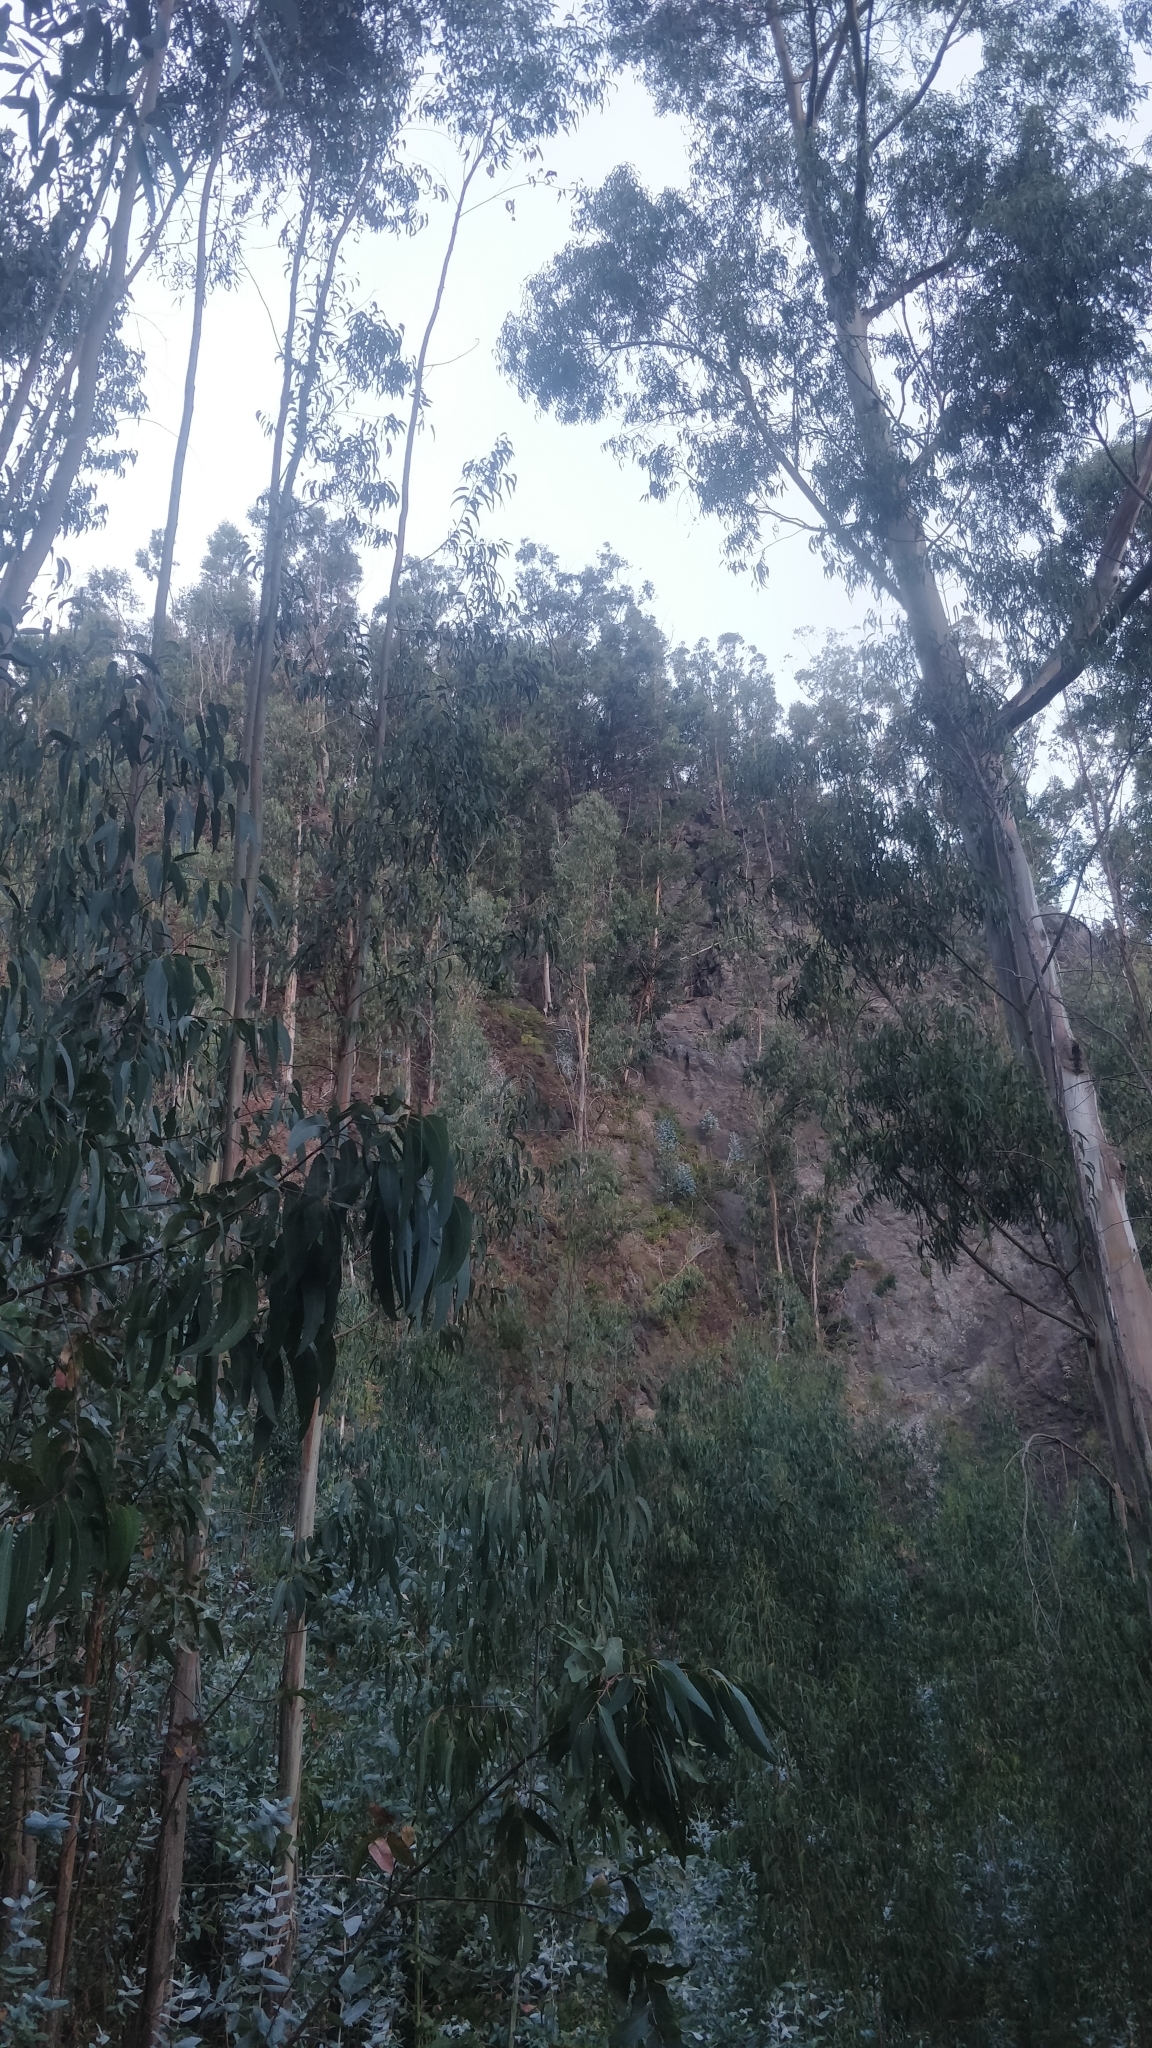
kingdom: Plantae
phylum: Tracheophyta
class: Magnoliopsida
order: Myrtales
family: Myrtaceae
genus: Eucalyptus
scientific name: Eucalyptus globulus
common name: Southern blue-gum
